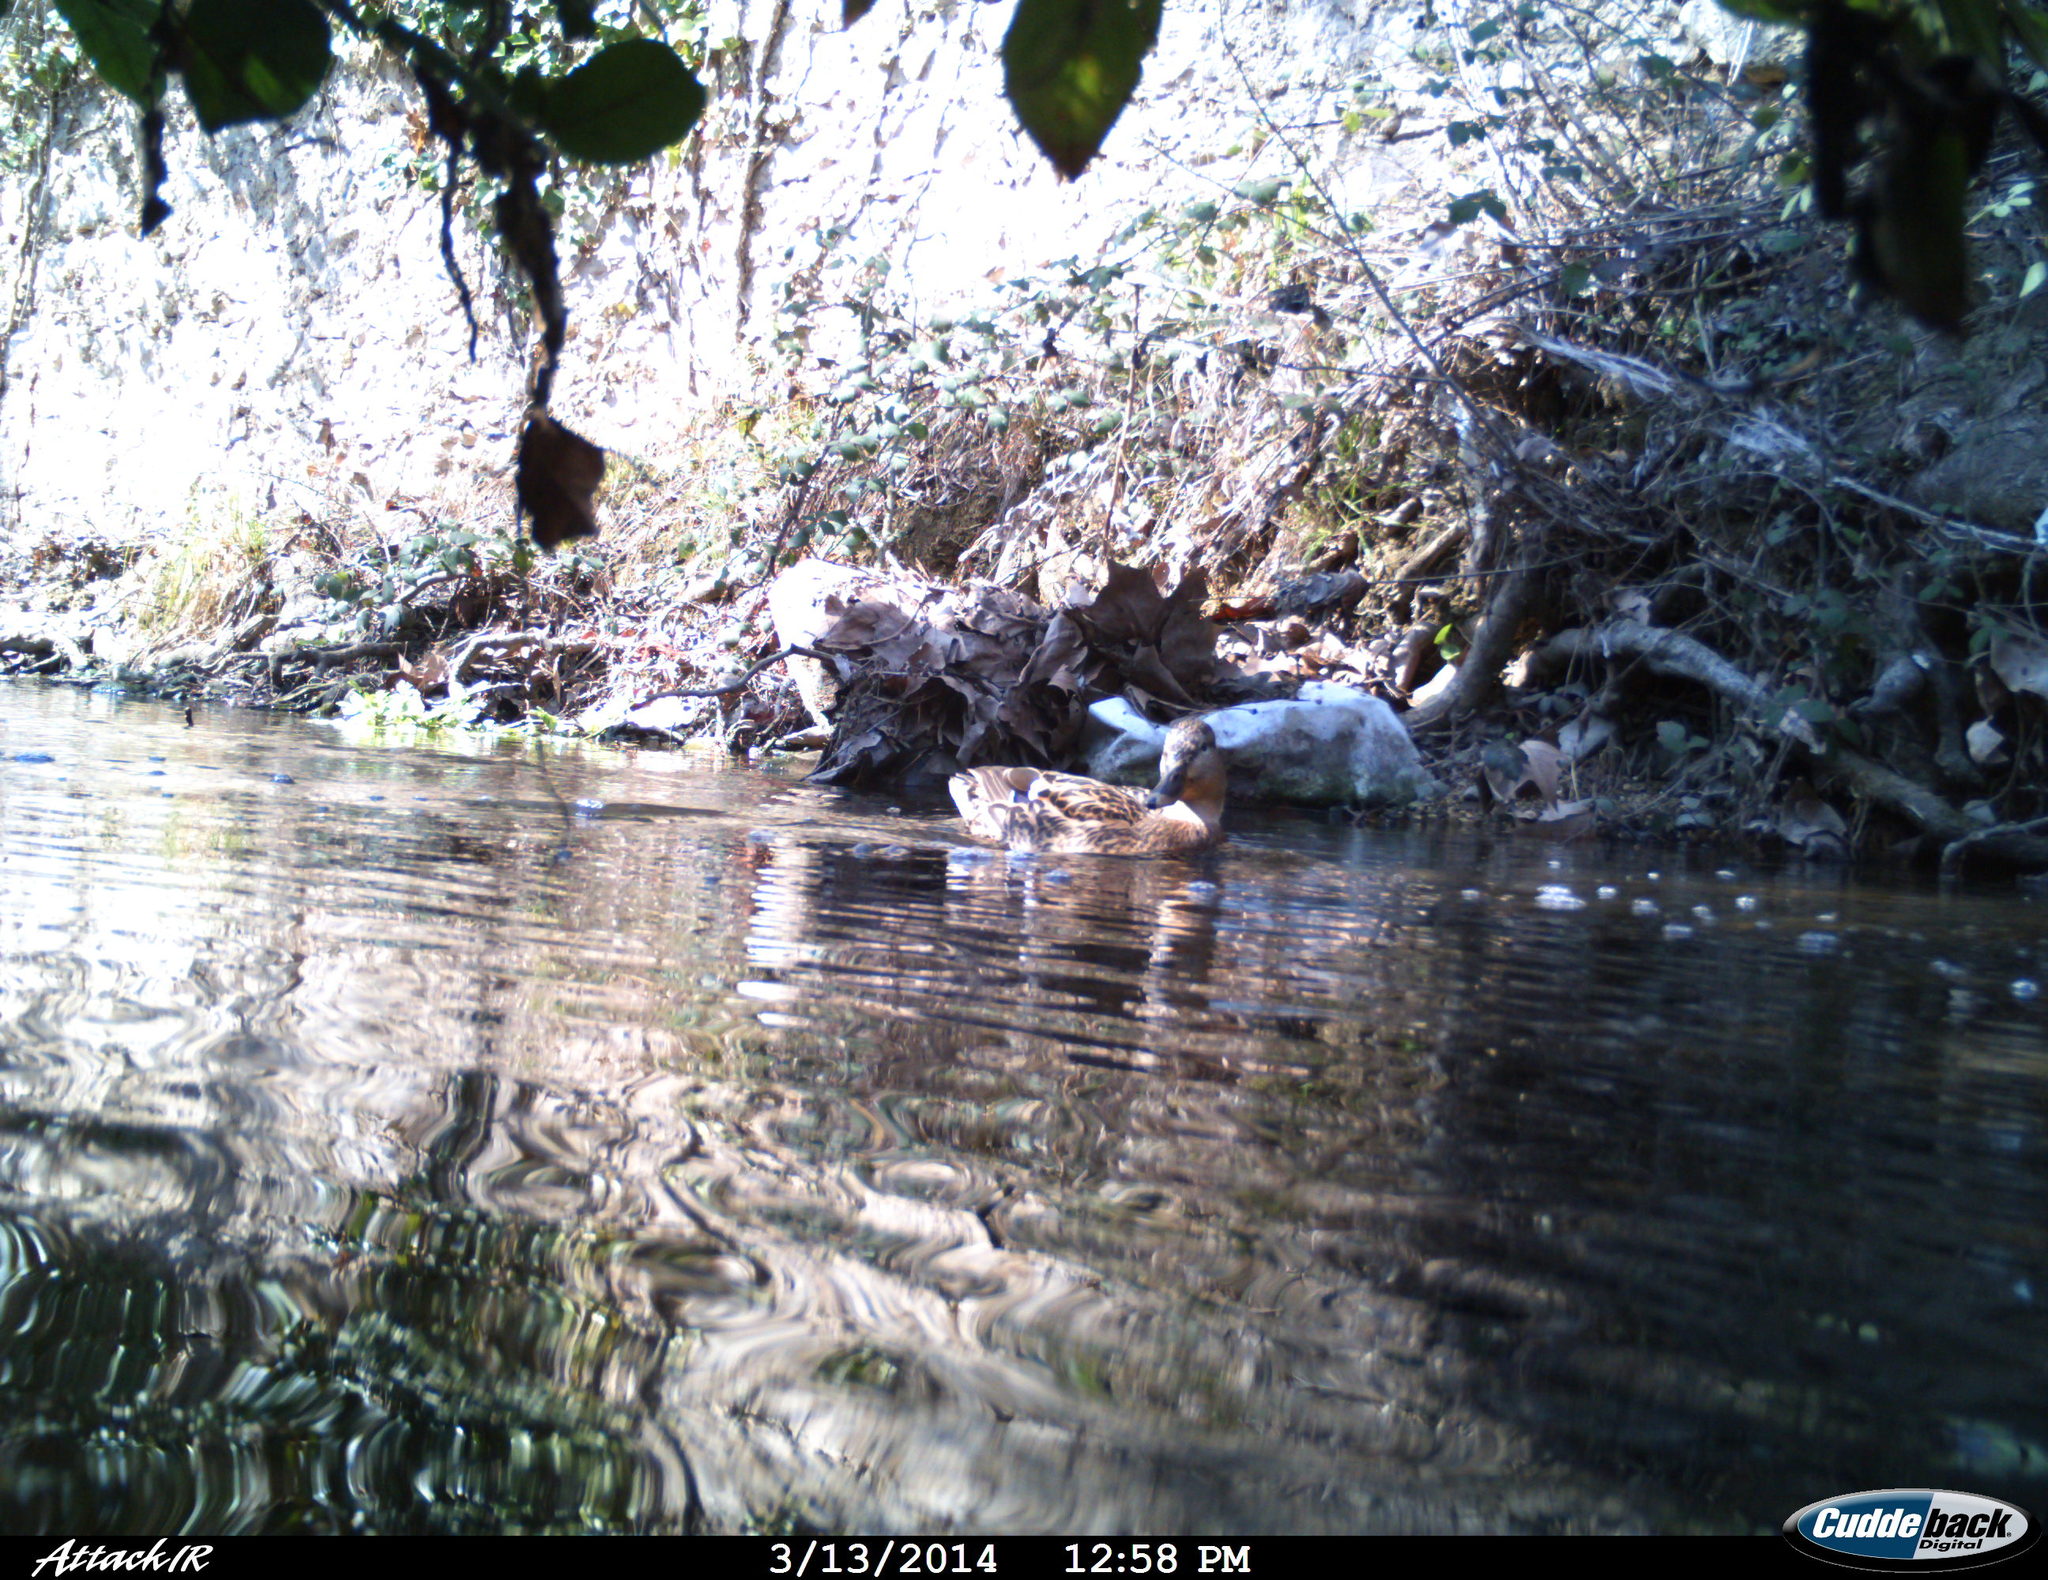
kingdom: Animalia
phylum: Chordata
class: Aves
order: Anseriformes
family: Anatidae
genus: Anas
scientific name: Anas platyrhynchos
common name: Mallard
